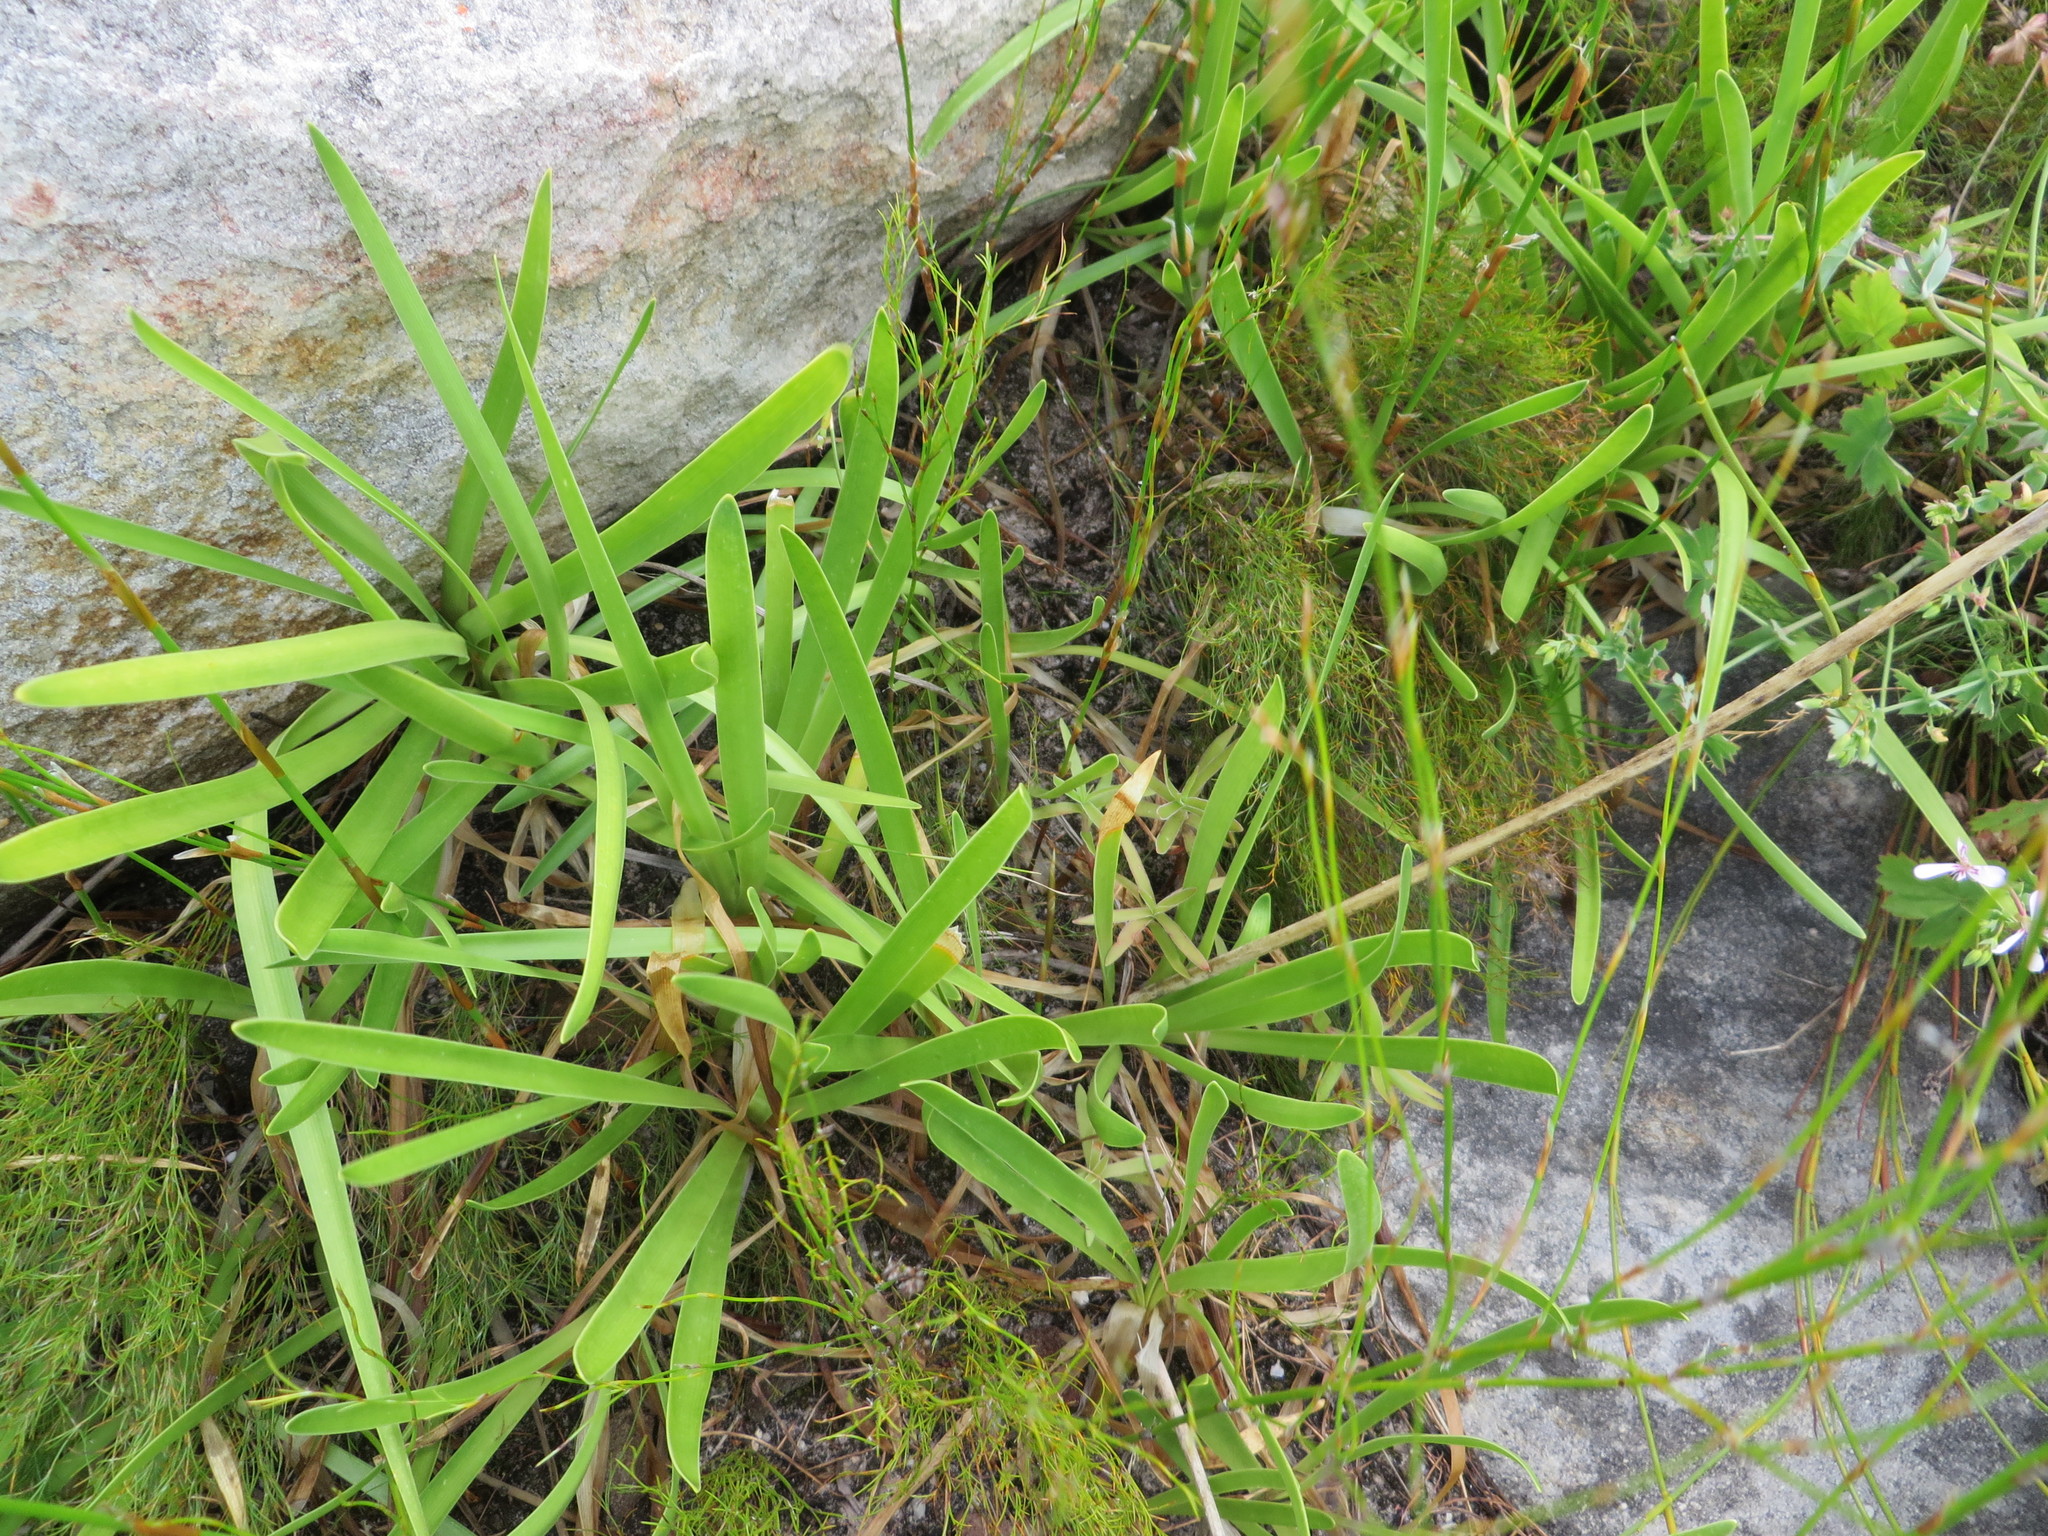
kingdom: Plantae
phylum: Tracheophyta
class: Liliopsida
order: Asparagales
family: Amaryllidaceae
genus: Agapanthus
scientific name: Agapanthus africanus
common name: Lily-of-the-nile
